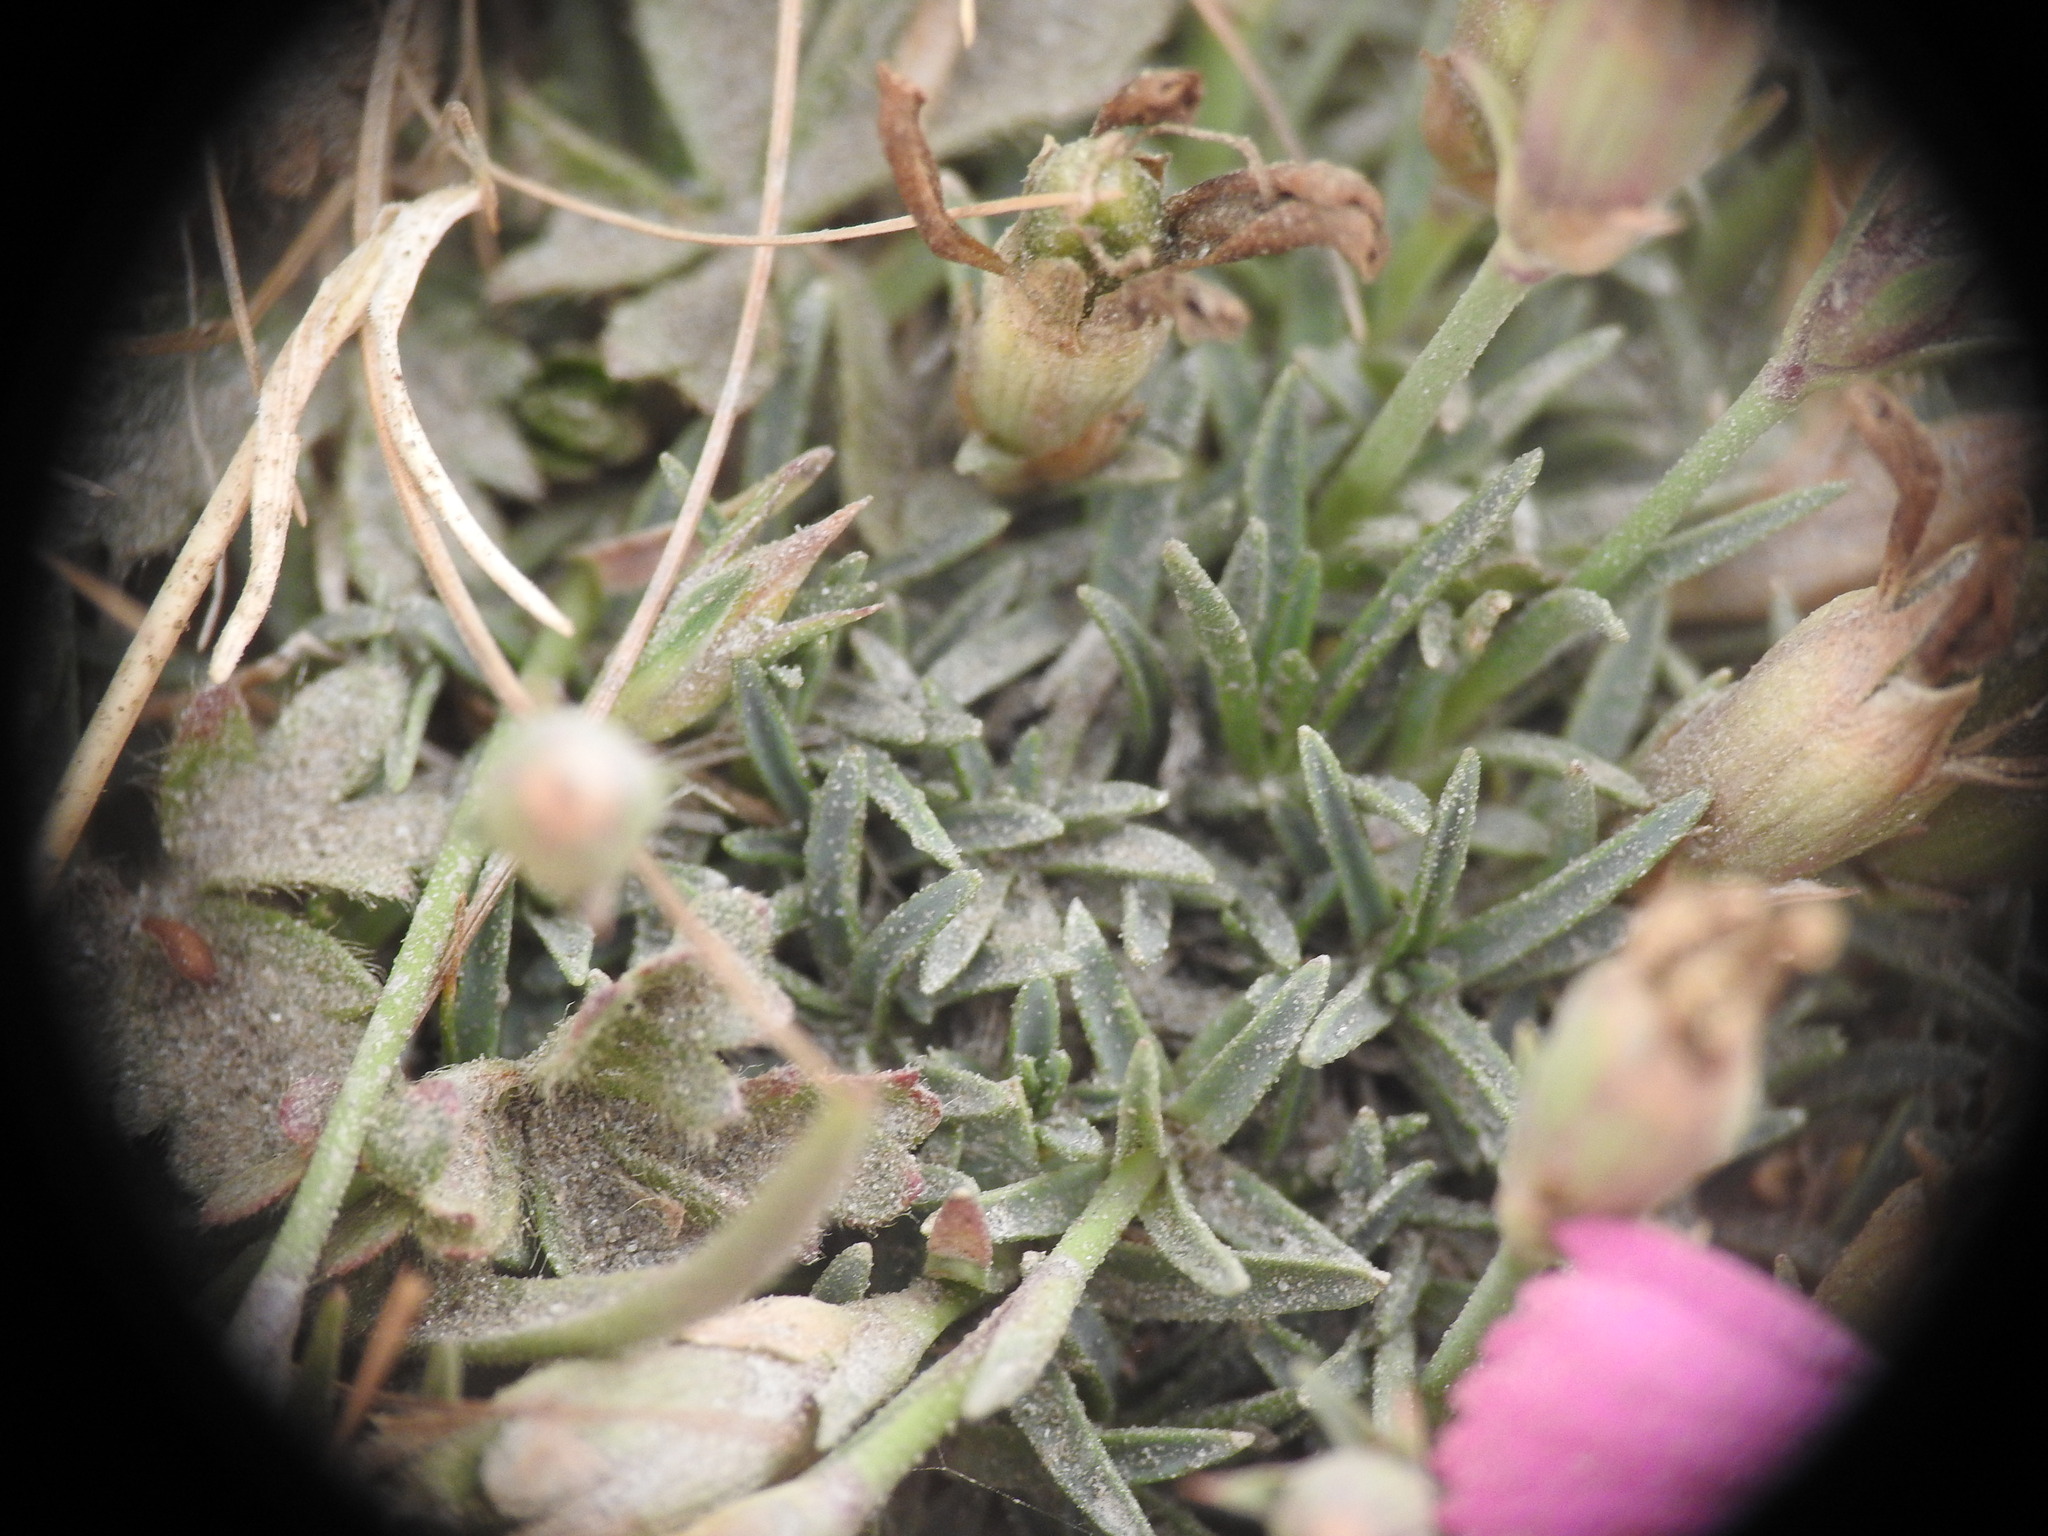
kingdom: Plantae
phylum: Tracheophyta
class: Magnoliopsida
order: Caryophyllales
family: Caryophyllaceae
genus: Dianthus
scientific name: Dianthus pavonius
